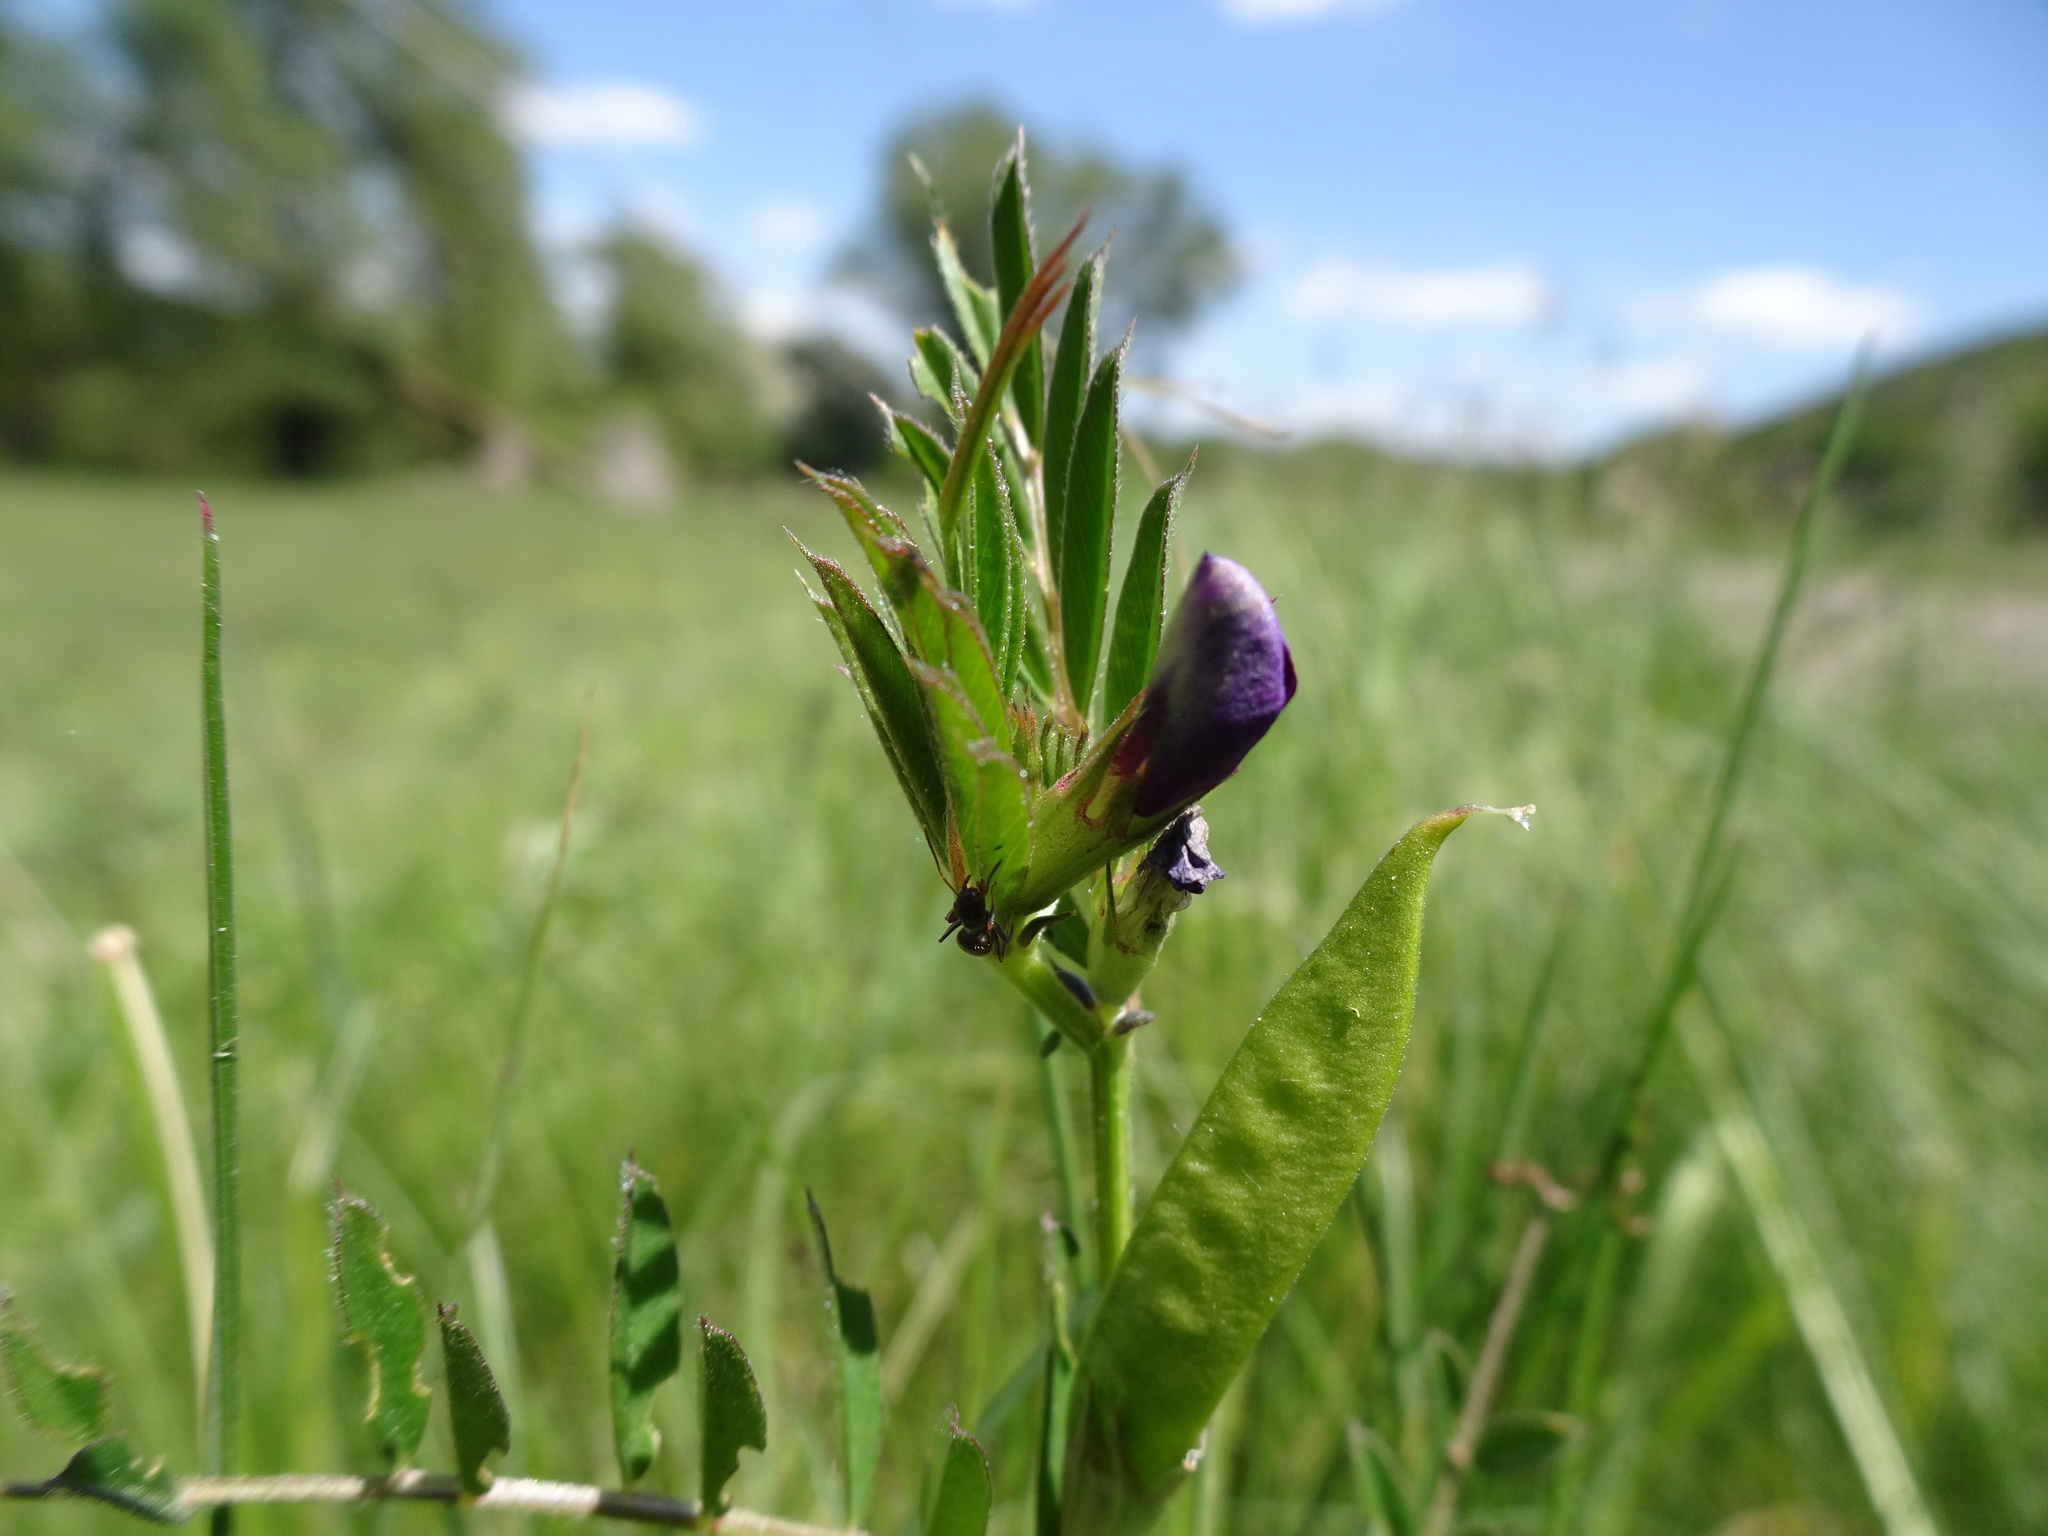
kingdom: Plantae
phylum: Tracheophyta
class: Magnoliopsida
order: Fabales
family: Fabaceae
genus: Vicia
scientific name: Vicia sativa
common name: Garden vetch
